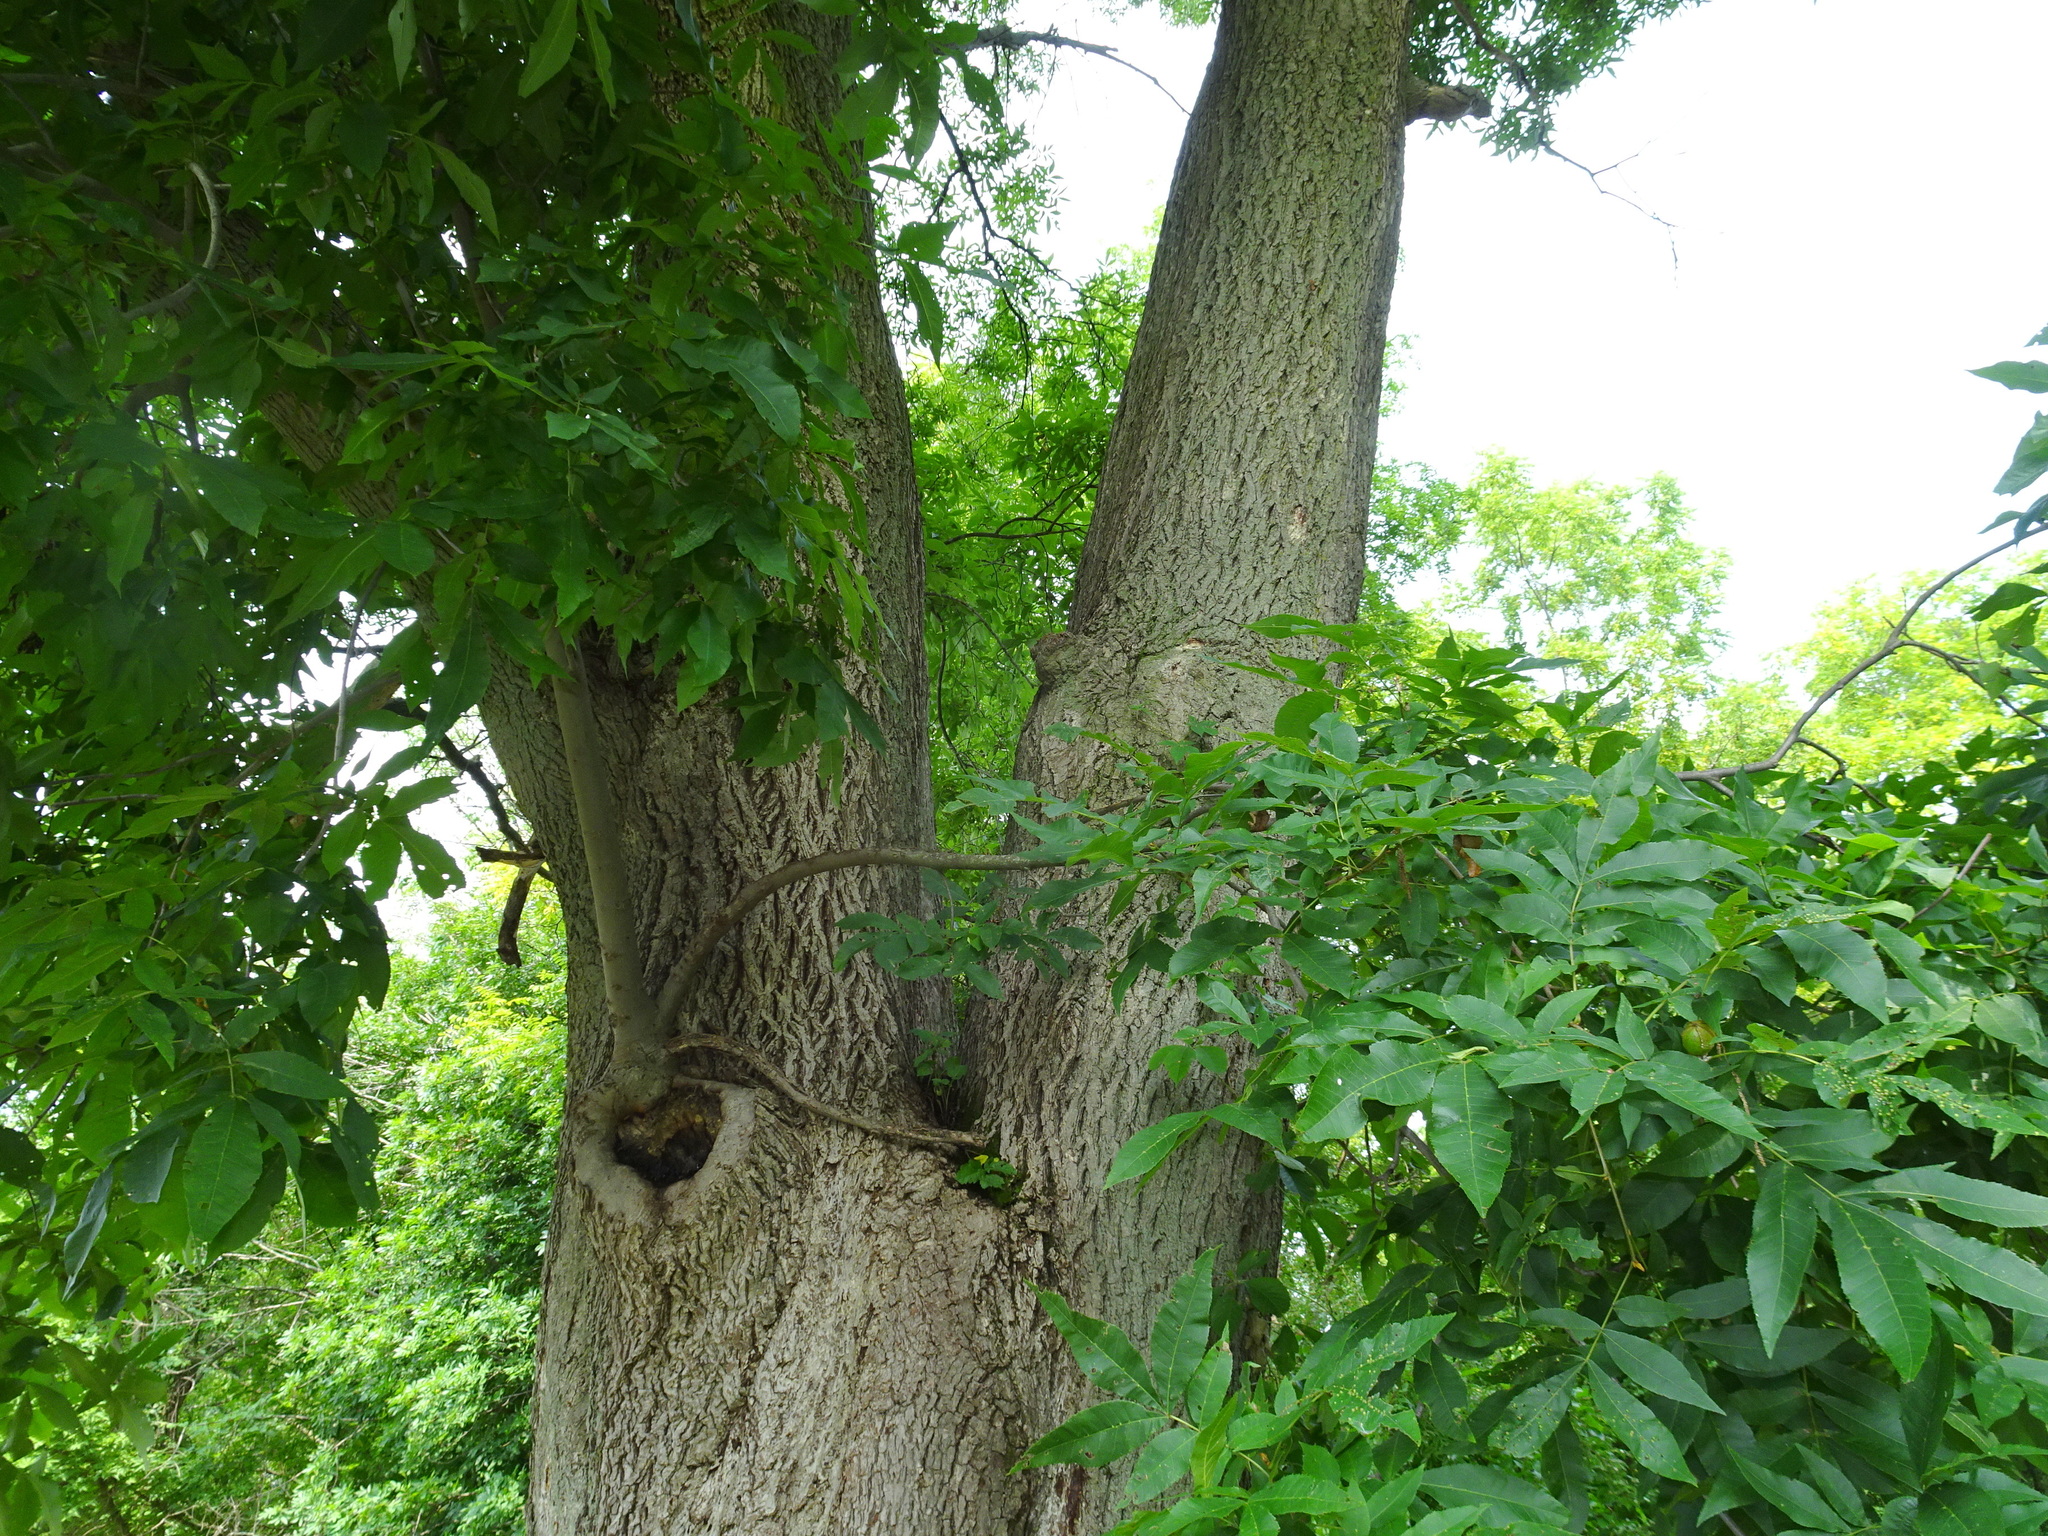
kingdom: Plantae
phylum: Tracheophyta
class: Magnoliopsida
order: Fagales
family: Juglandaceae
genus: Carya
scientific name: Carya cordiformis
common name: Bitternut hickory
